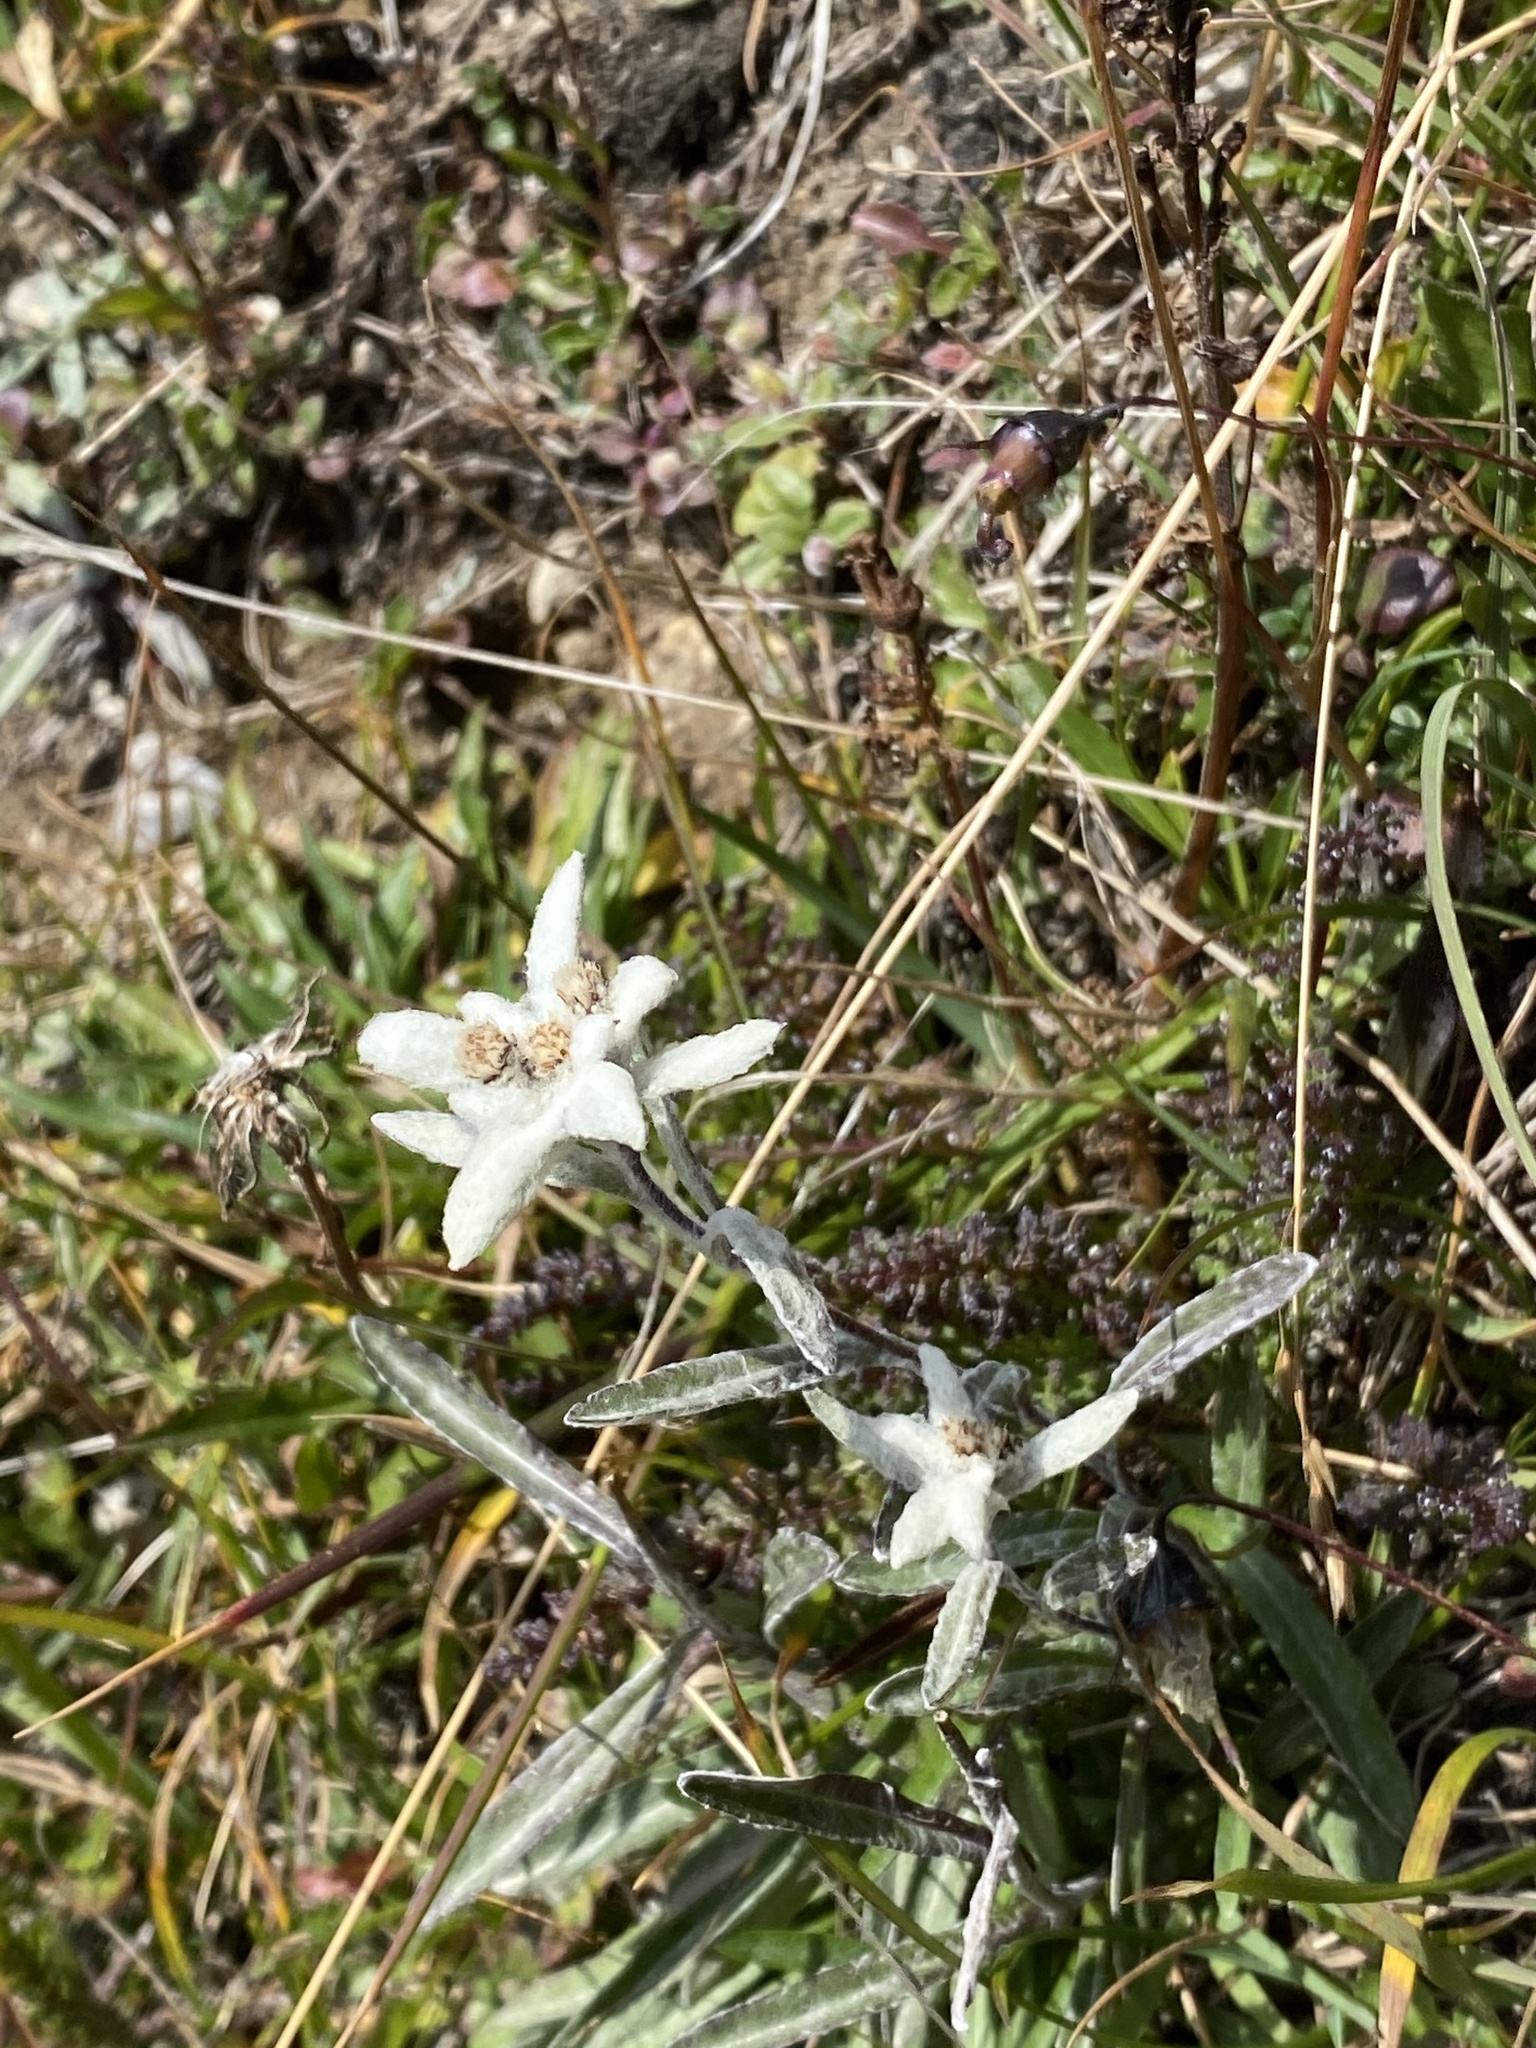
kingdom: Plantae
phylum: Tracheophyta
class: Magnoliopsida
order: Asterales
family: Asteraceae
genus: Leontopodium
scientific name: Leontopodium nivale
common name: Edelweiss
